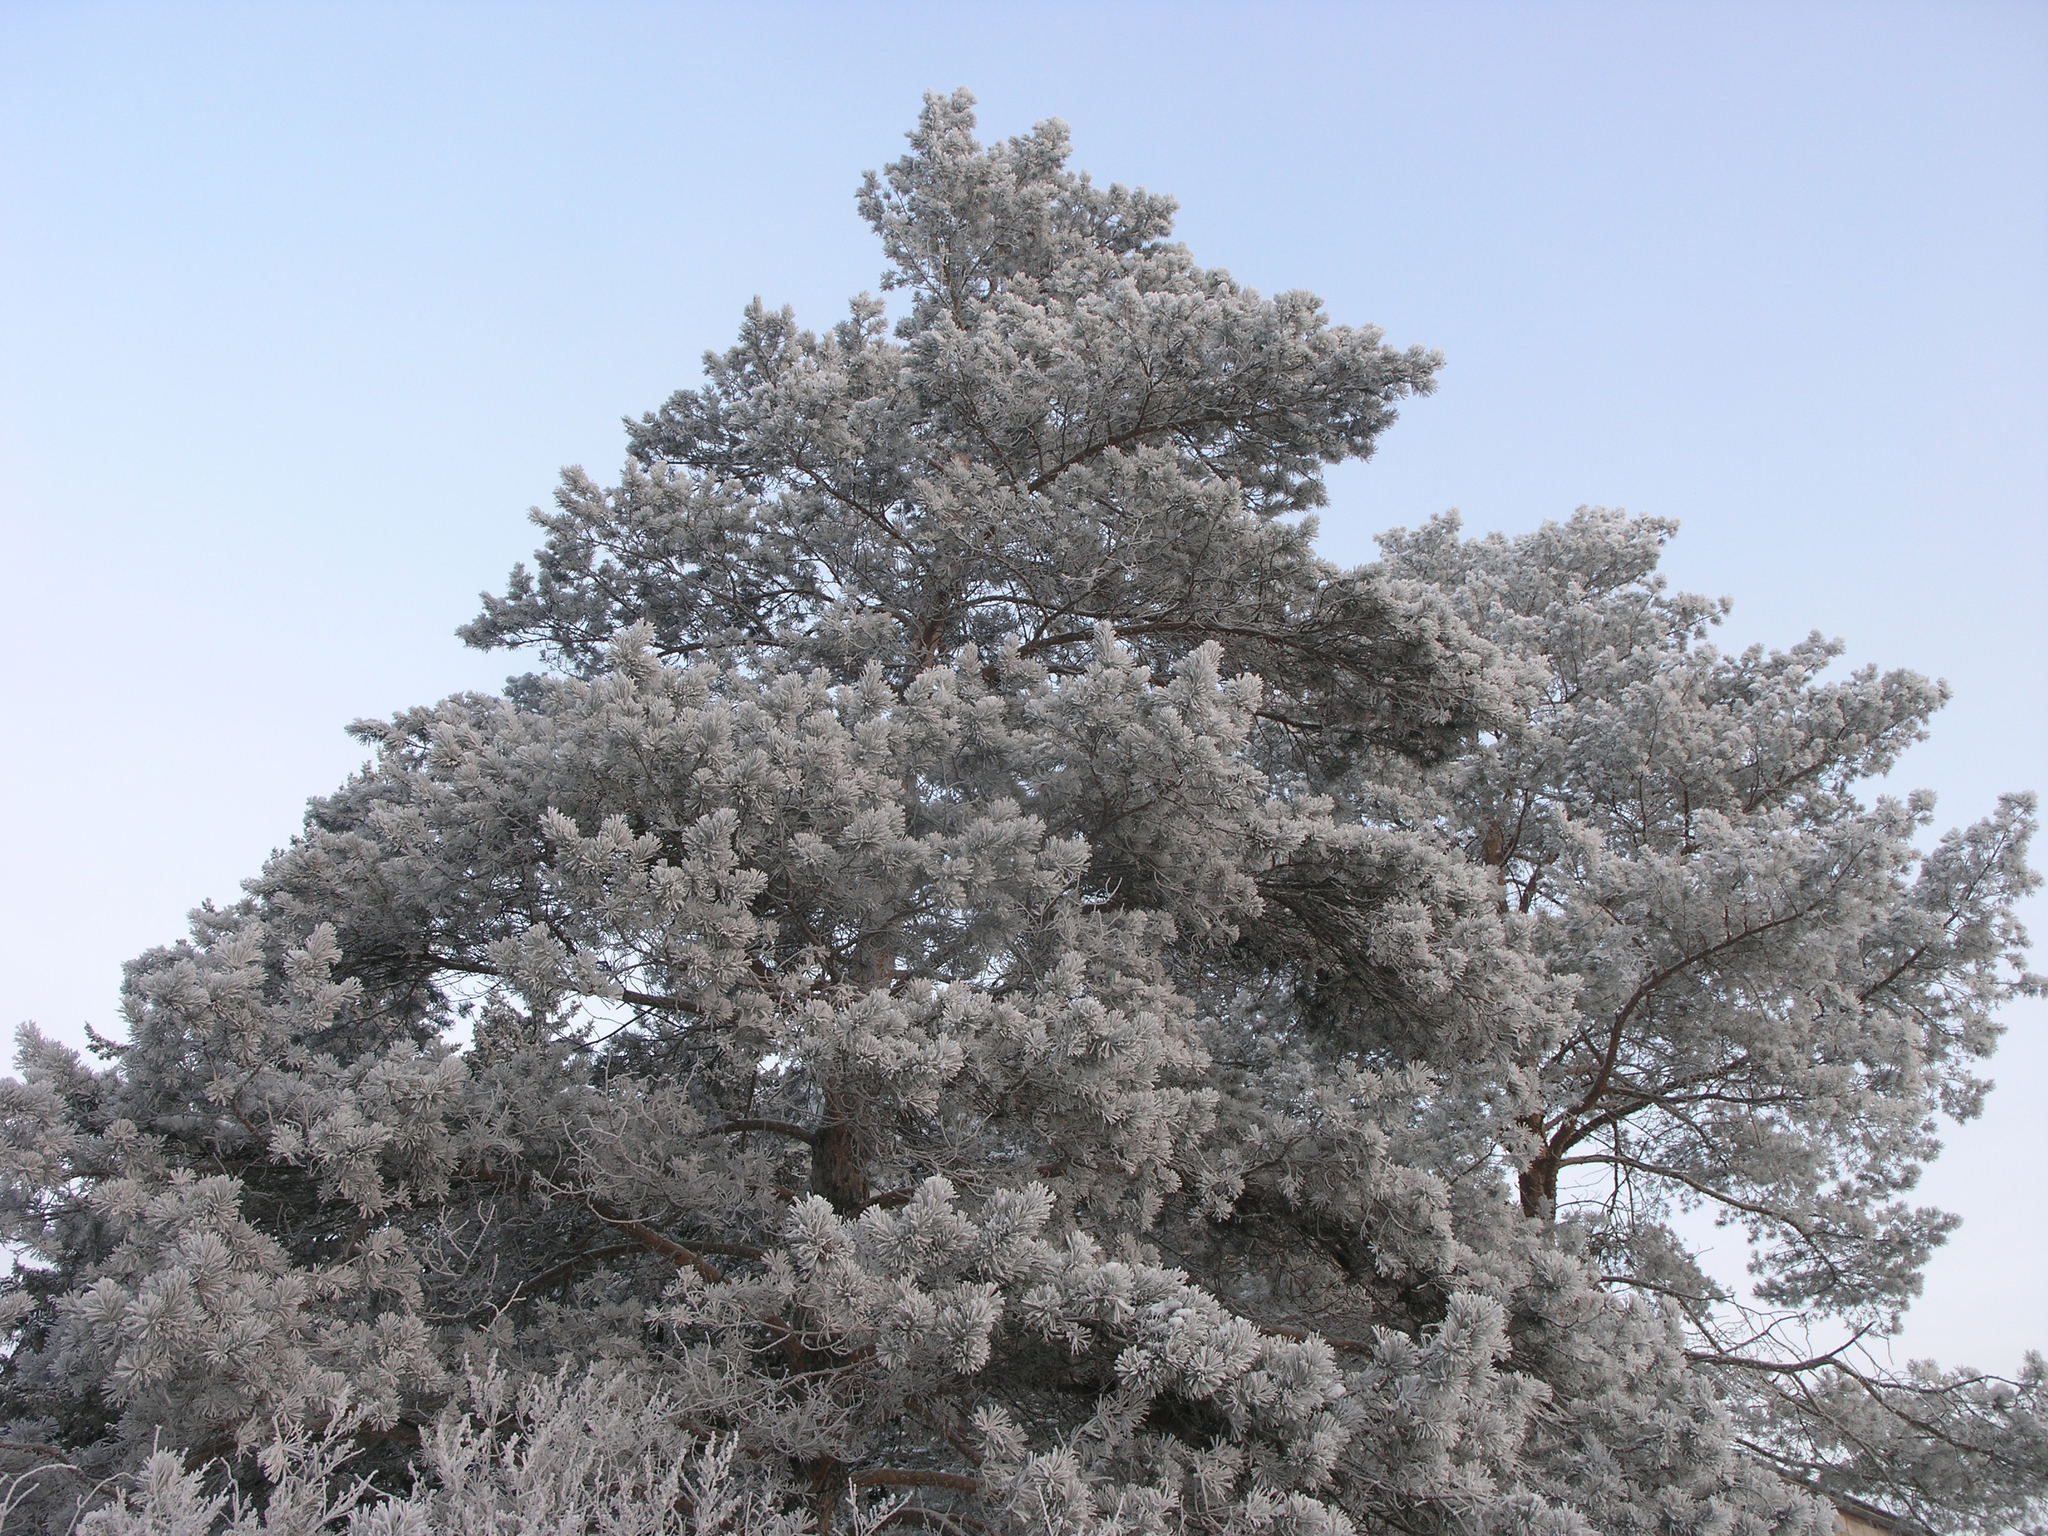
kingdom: Plantae
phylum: Tracheophyta
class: Pinopsida
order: Pinales
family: Pinaceae
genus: Pinus
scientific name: Pinus sylvestris
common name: Scots pine
